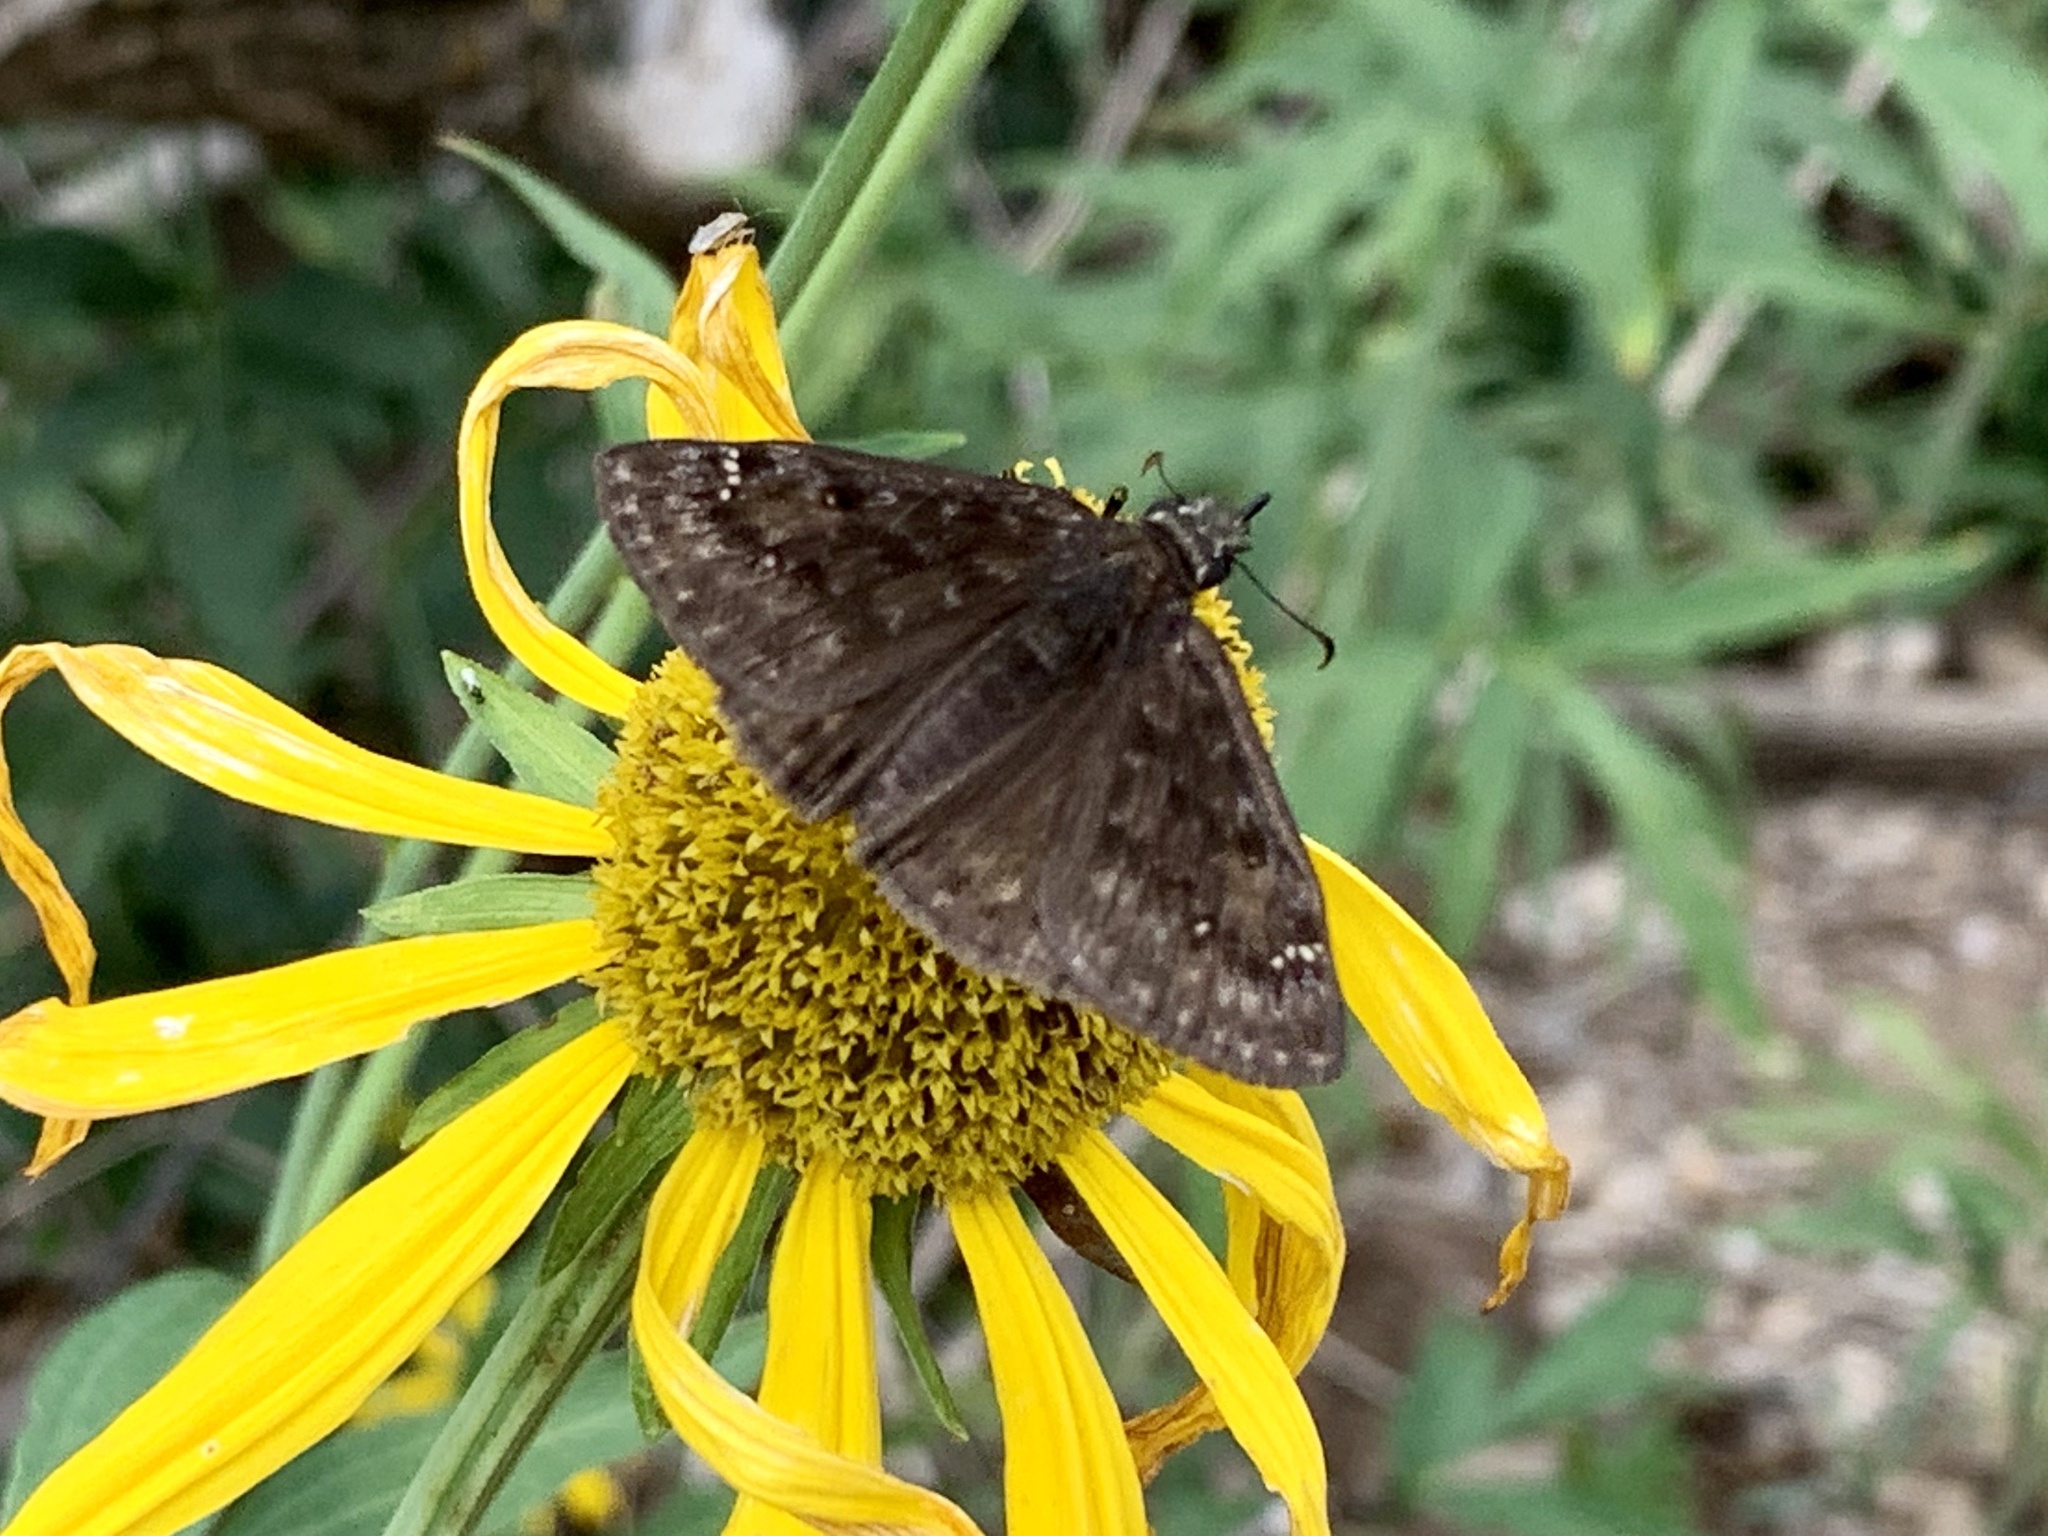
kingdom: Animalia
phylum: Arthropoda
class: Insecta
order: Lepidoptera
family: Hesperiidae
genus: Erynnis
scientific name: Erynnis horatius
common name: Horace's duskywing
